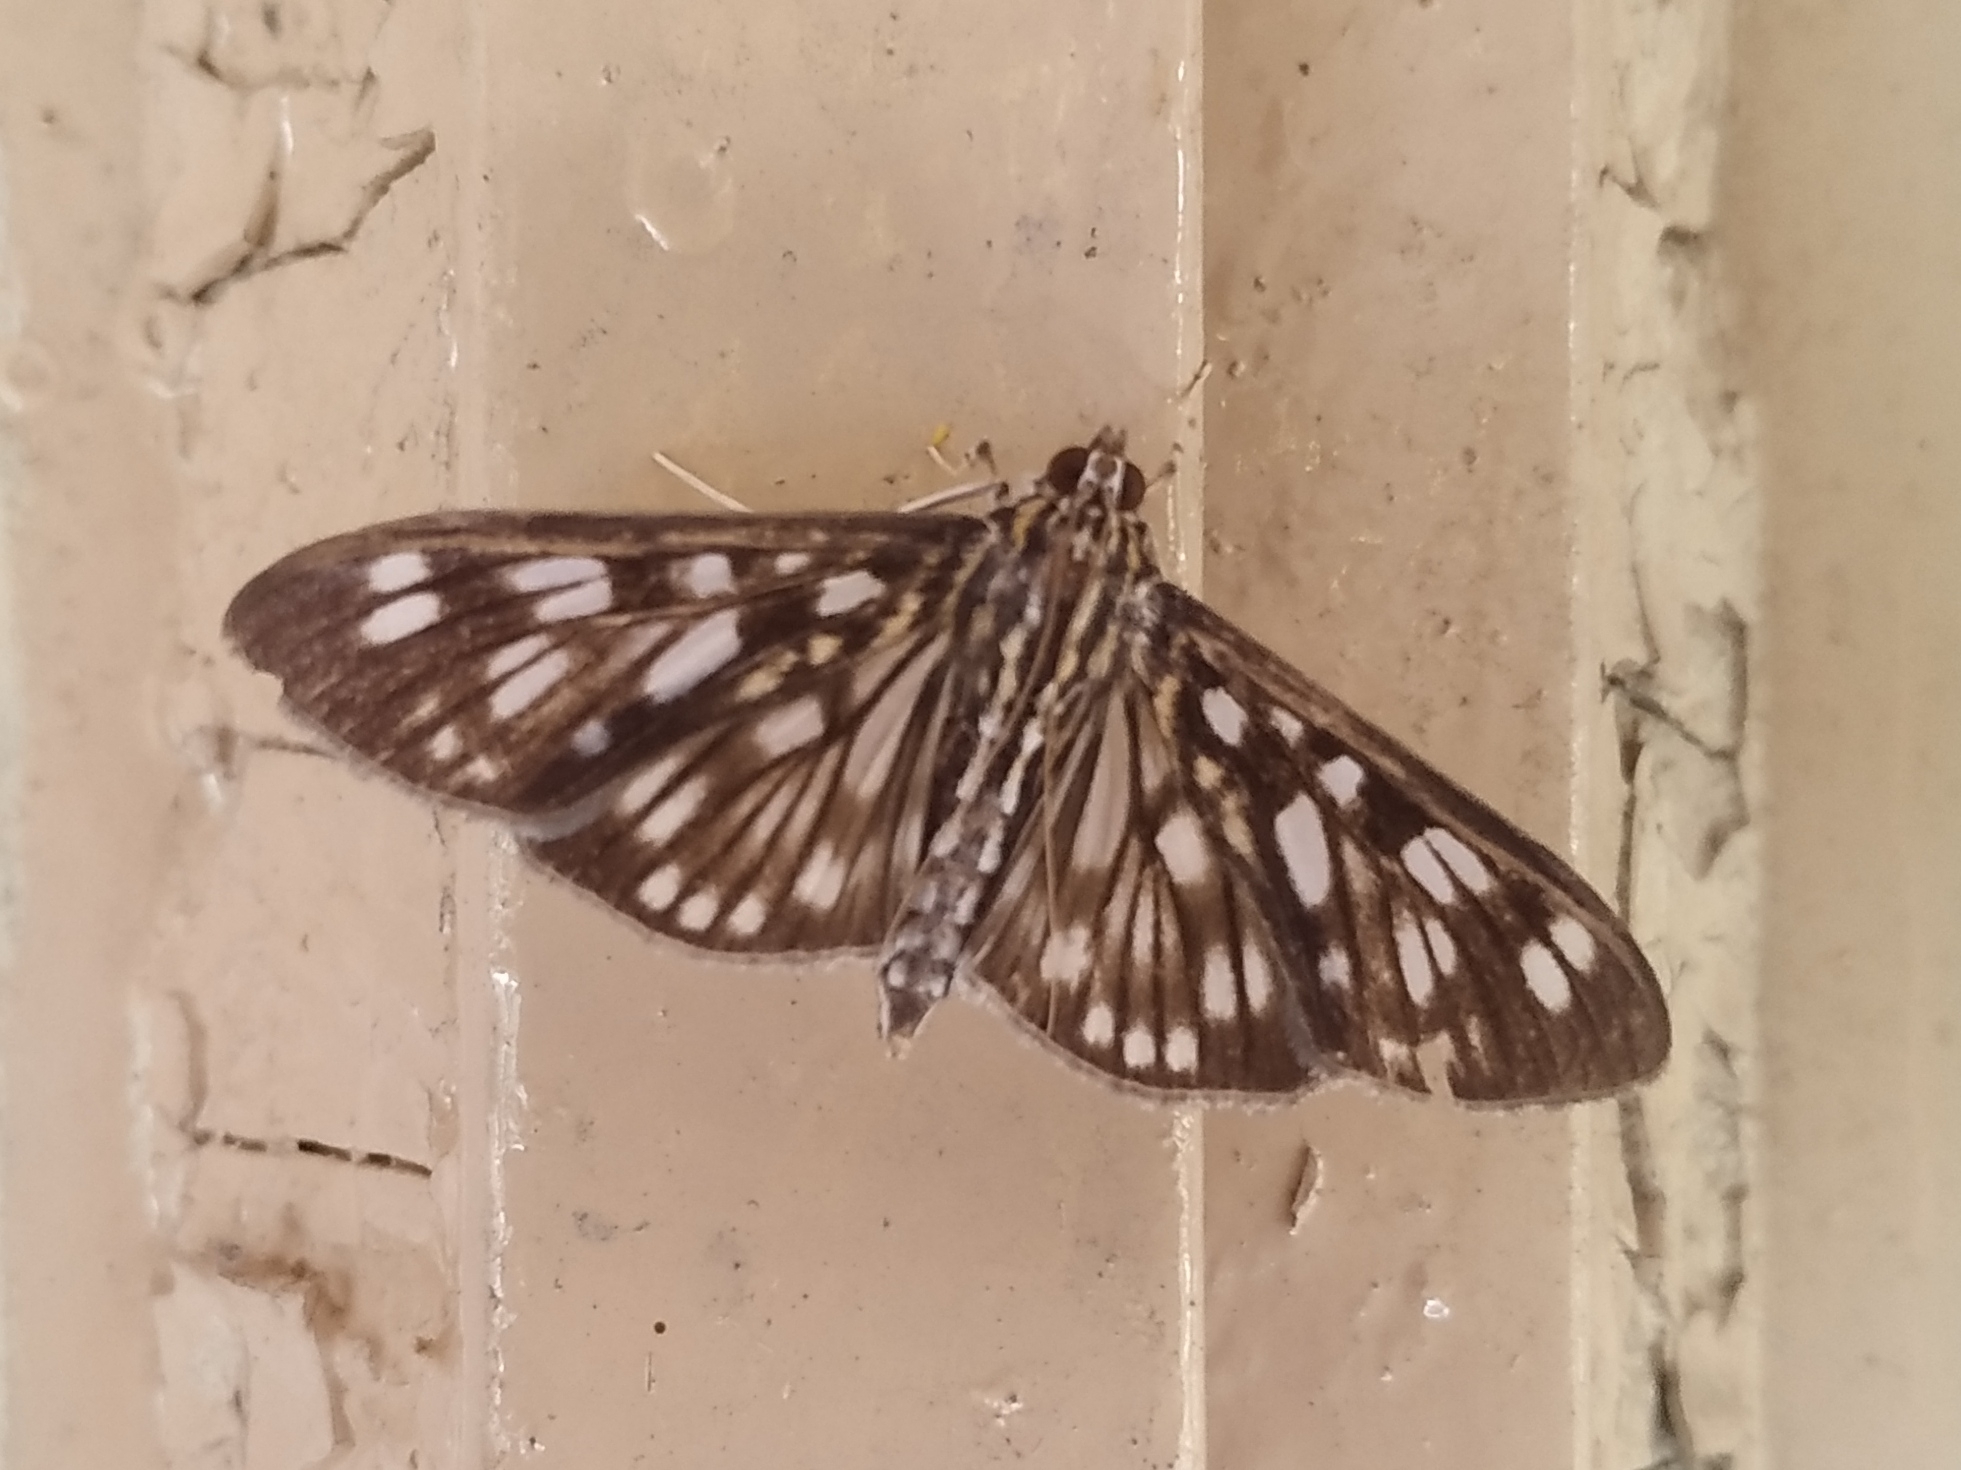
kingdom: Animalia
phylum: Arthropoda
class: Insecta
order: Lepidoptera
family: Crambidae
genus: Pygospila
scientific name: Pygospila tyres
